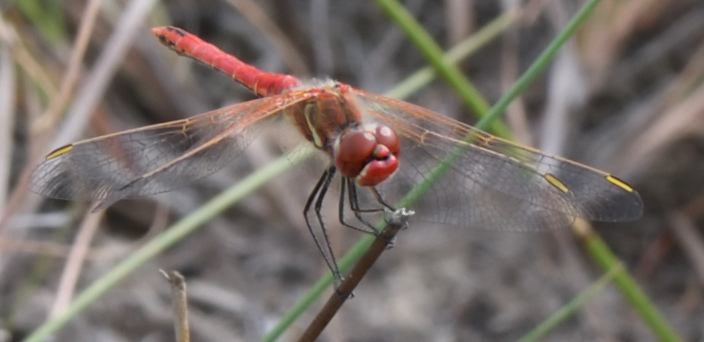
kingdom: Animalia
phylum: Arthropoda
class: Insecta
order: Odonata
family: Libellulidae
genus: Sympetrum
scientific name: Sympetrum fonscolombii
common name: Red-veined darter
